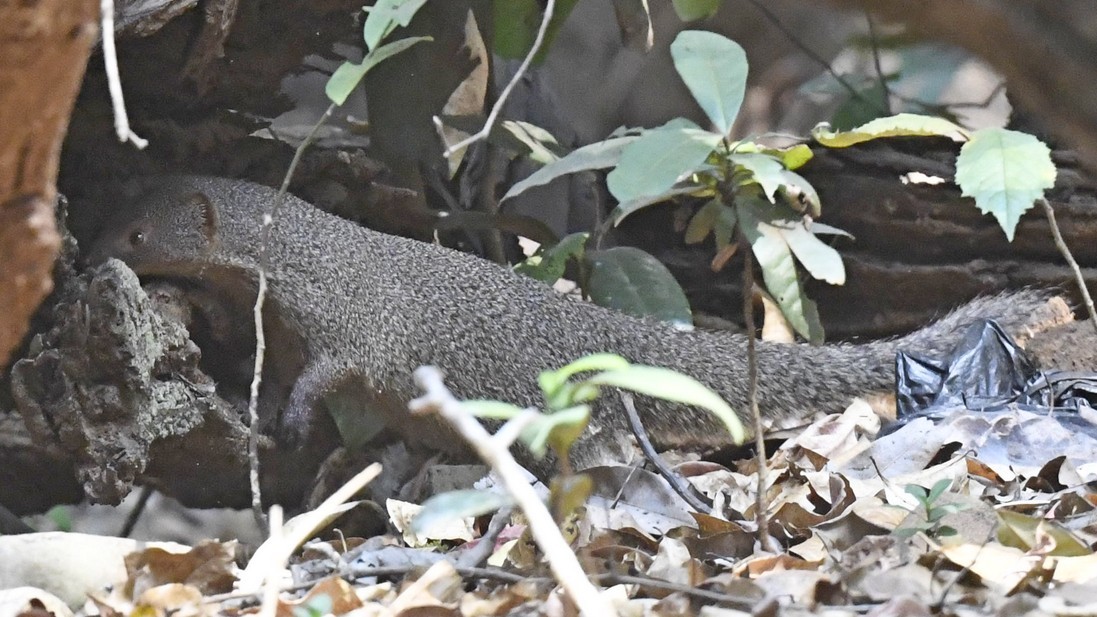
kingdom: Animalia
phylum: Chordata
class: Mammalia
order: Carnivora
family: Herpestidae
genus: Herpestes
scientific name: Herpestes edwardsi
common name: Indian gray mongoose
